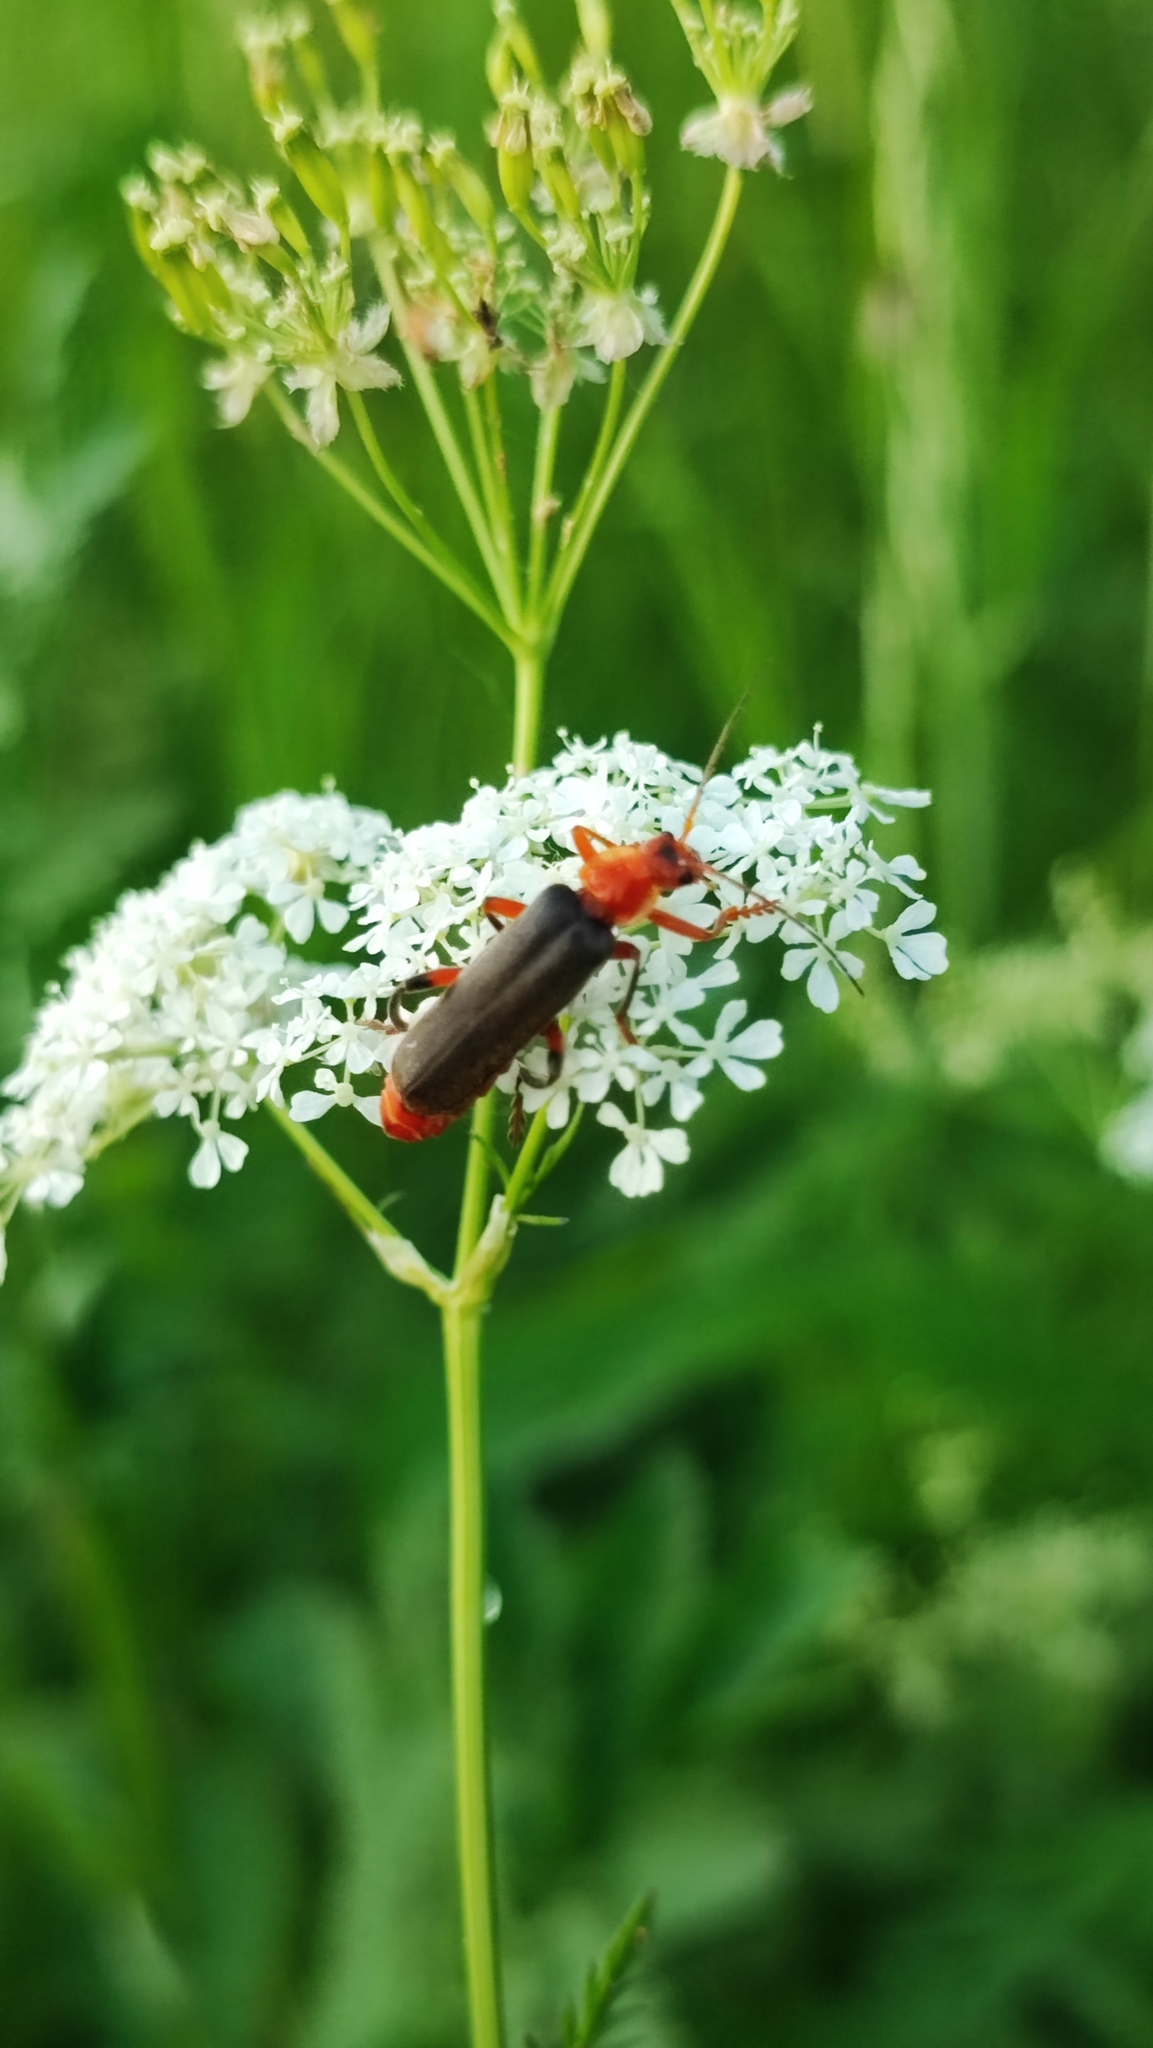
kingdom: Animalia
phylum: Arthropoda
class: Insecta
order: Coleoptera
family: Cantharidae
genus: Cantharis
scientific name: Cantharis livida
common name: Livid soldier beetle
